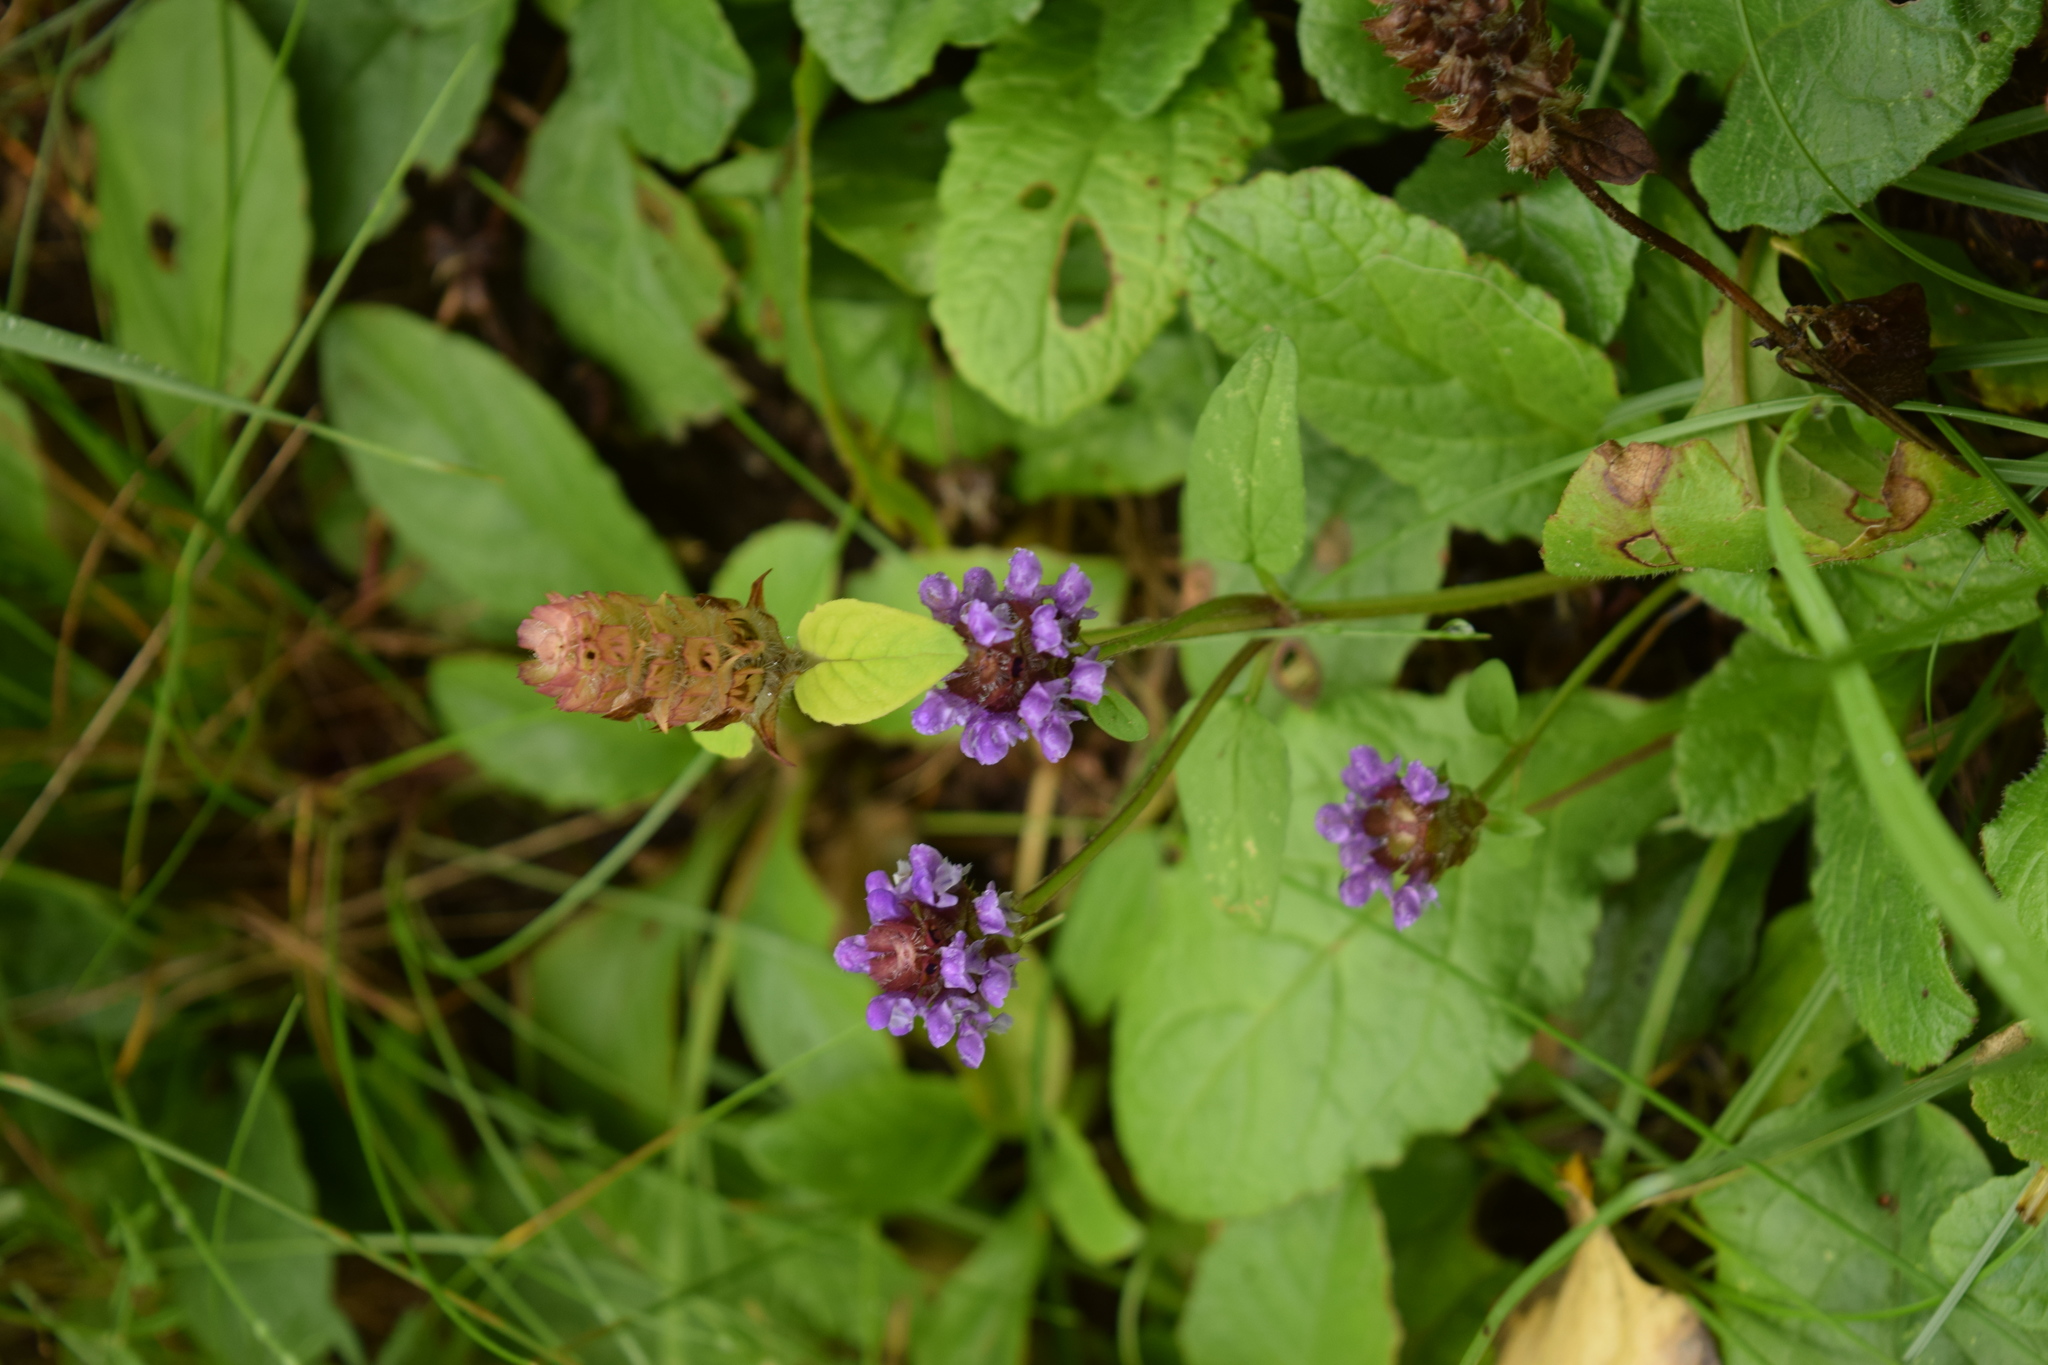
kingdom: Plantae
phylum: Tracheophyta
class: Magnoliopsida
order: Lamiales
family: Lamiaceae
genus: Prunella
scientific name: Prunella vulgaris
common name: Heal-all
